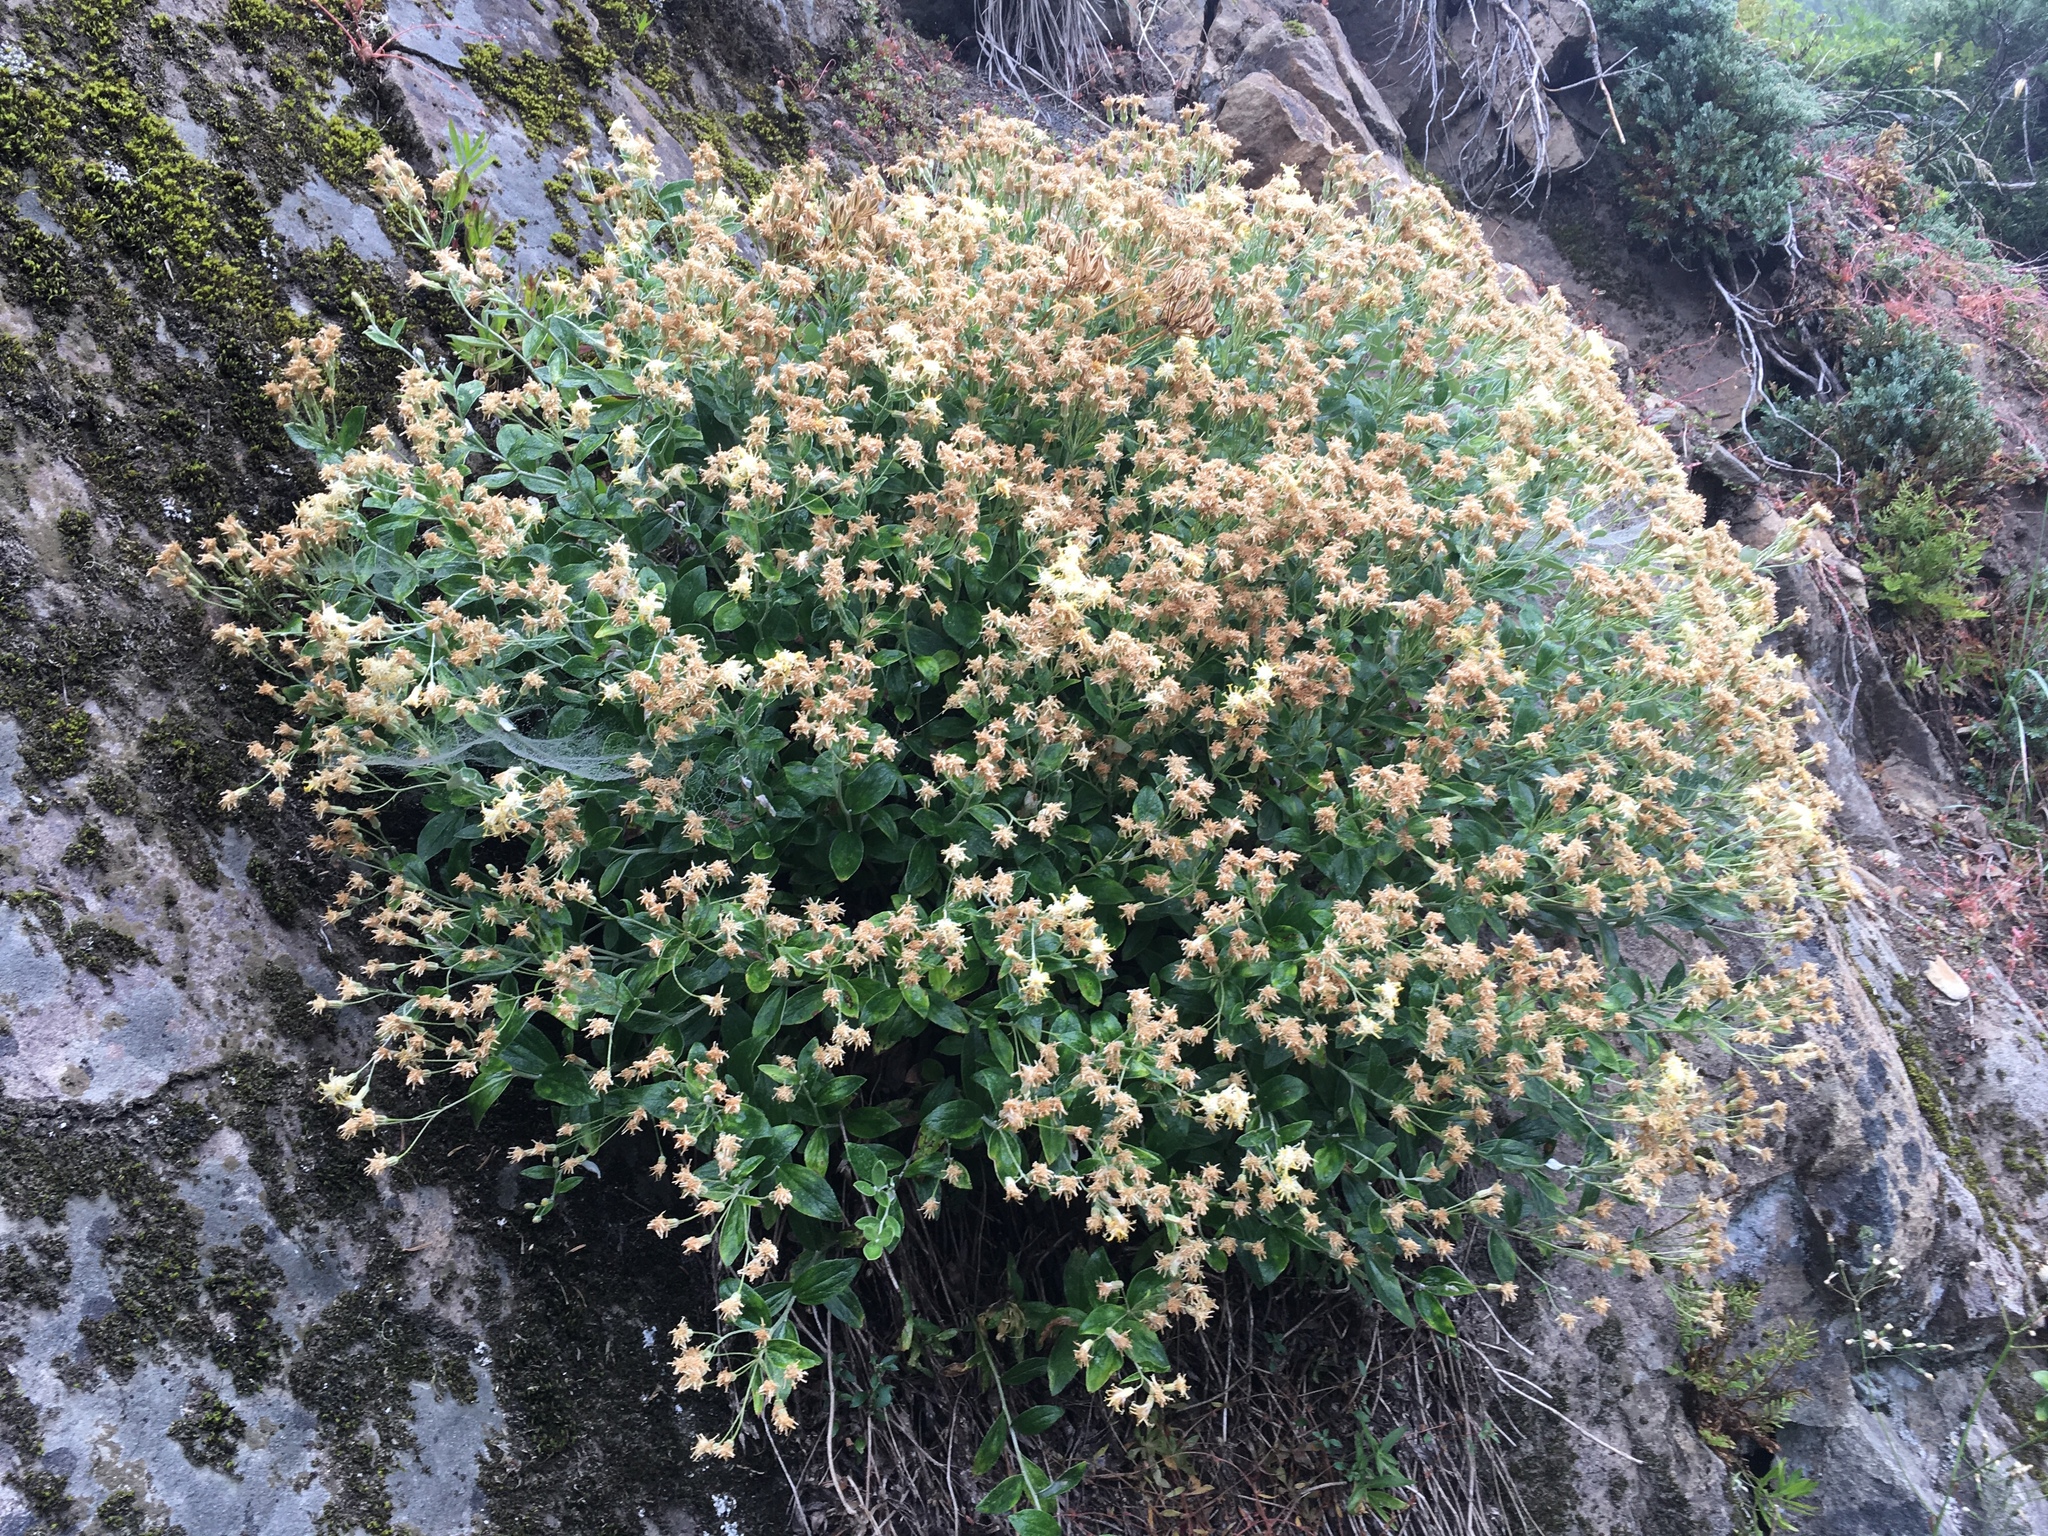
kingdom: Plantae
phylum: Tracheophyta
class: Magnoliopsida
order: Asterales
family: Asteraceae
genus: Luina
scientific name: Luina hypoleuca
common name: Little-leaved luina
